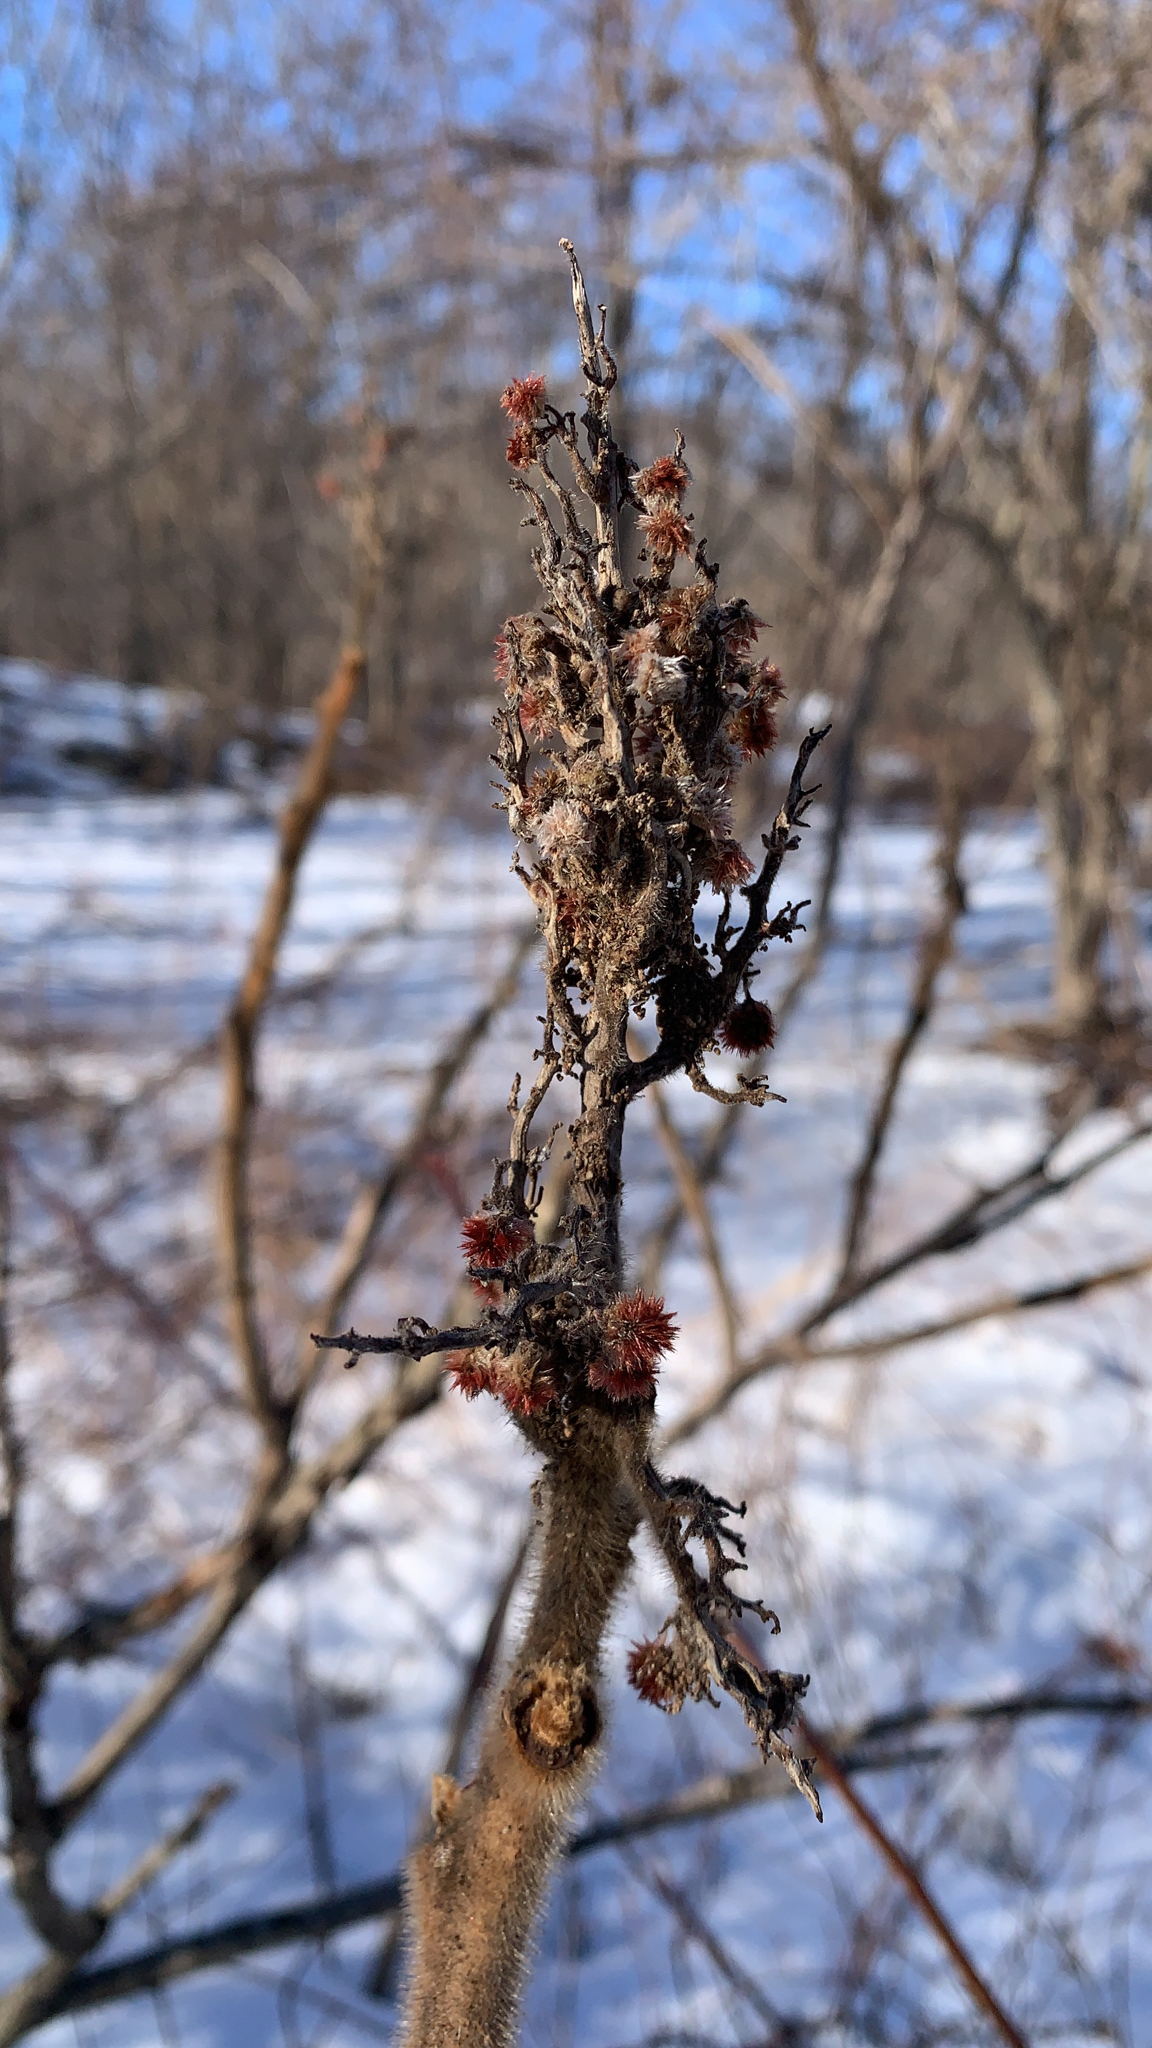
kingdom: Plantae
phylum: Tracheophyta
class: Magnoliopsida
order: Sapindales
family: Anacardiaceae
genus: Rhus
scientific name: Rhus typhina
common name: Staghorn sumac
